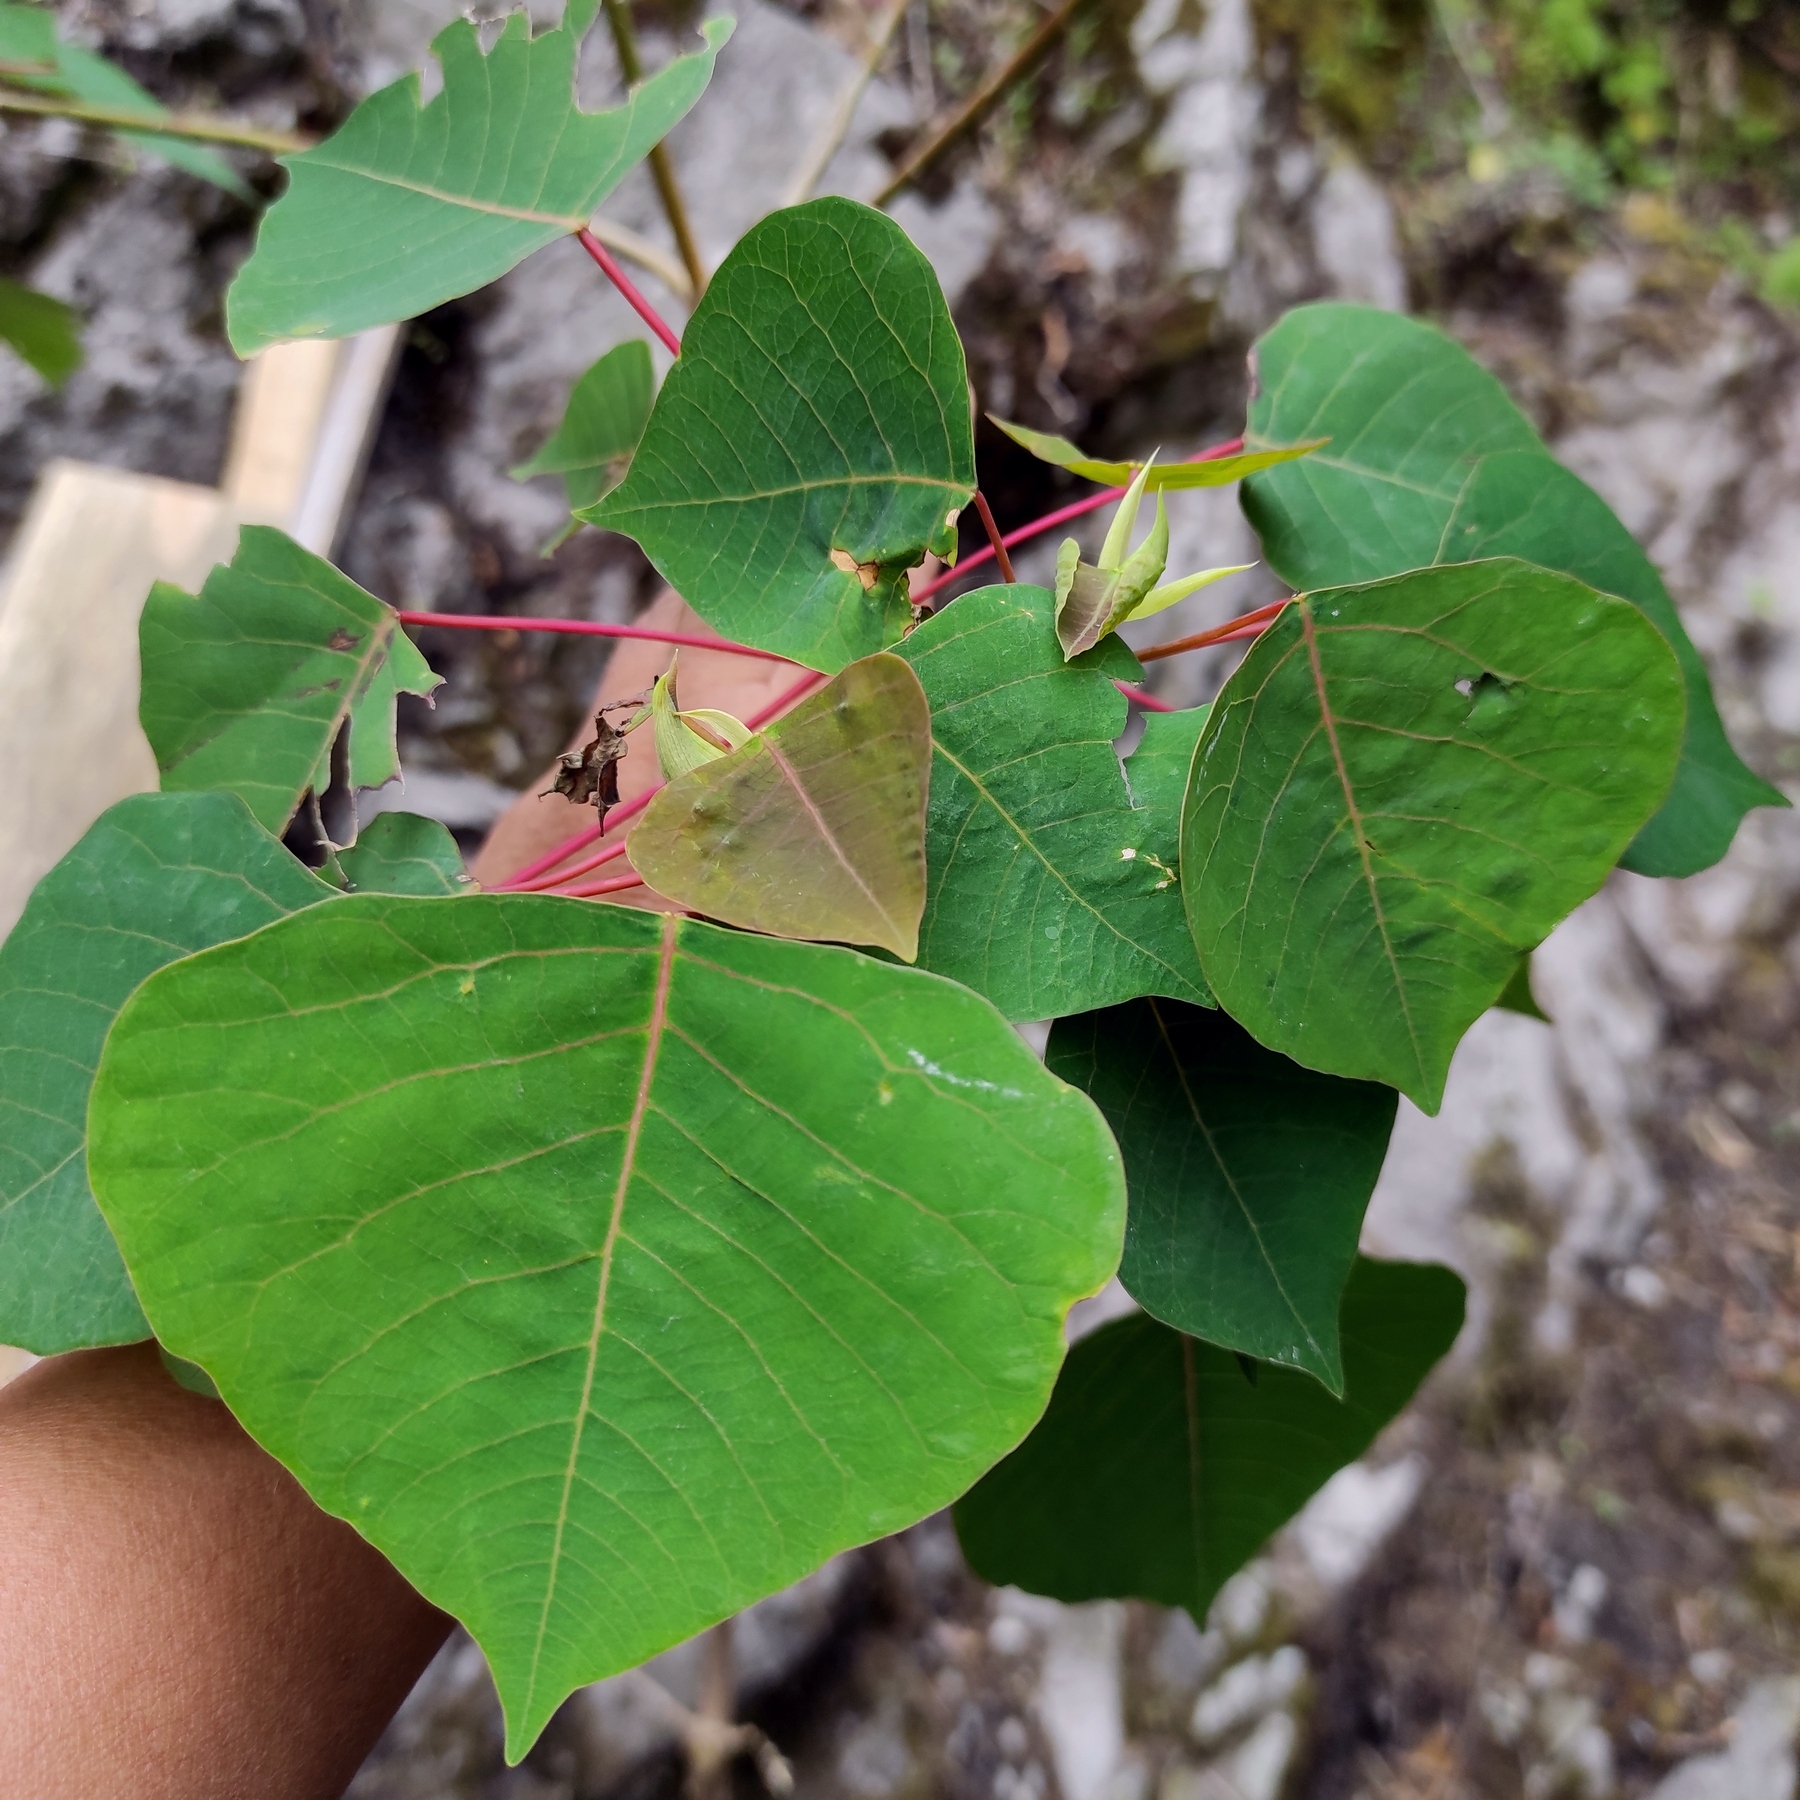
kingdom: Plantae
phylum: Tracheophyta
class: Magnoliopsida
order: Malpighiales
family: Euphorbiaceae
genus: Homalanthus
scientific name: Homalanthus populneus
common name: Spurge
